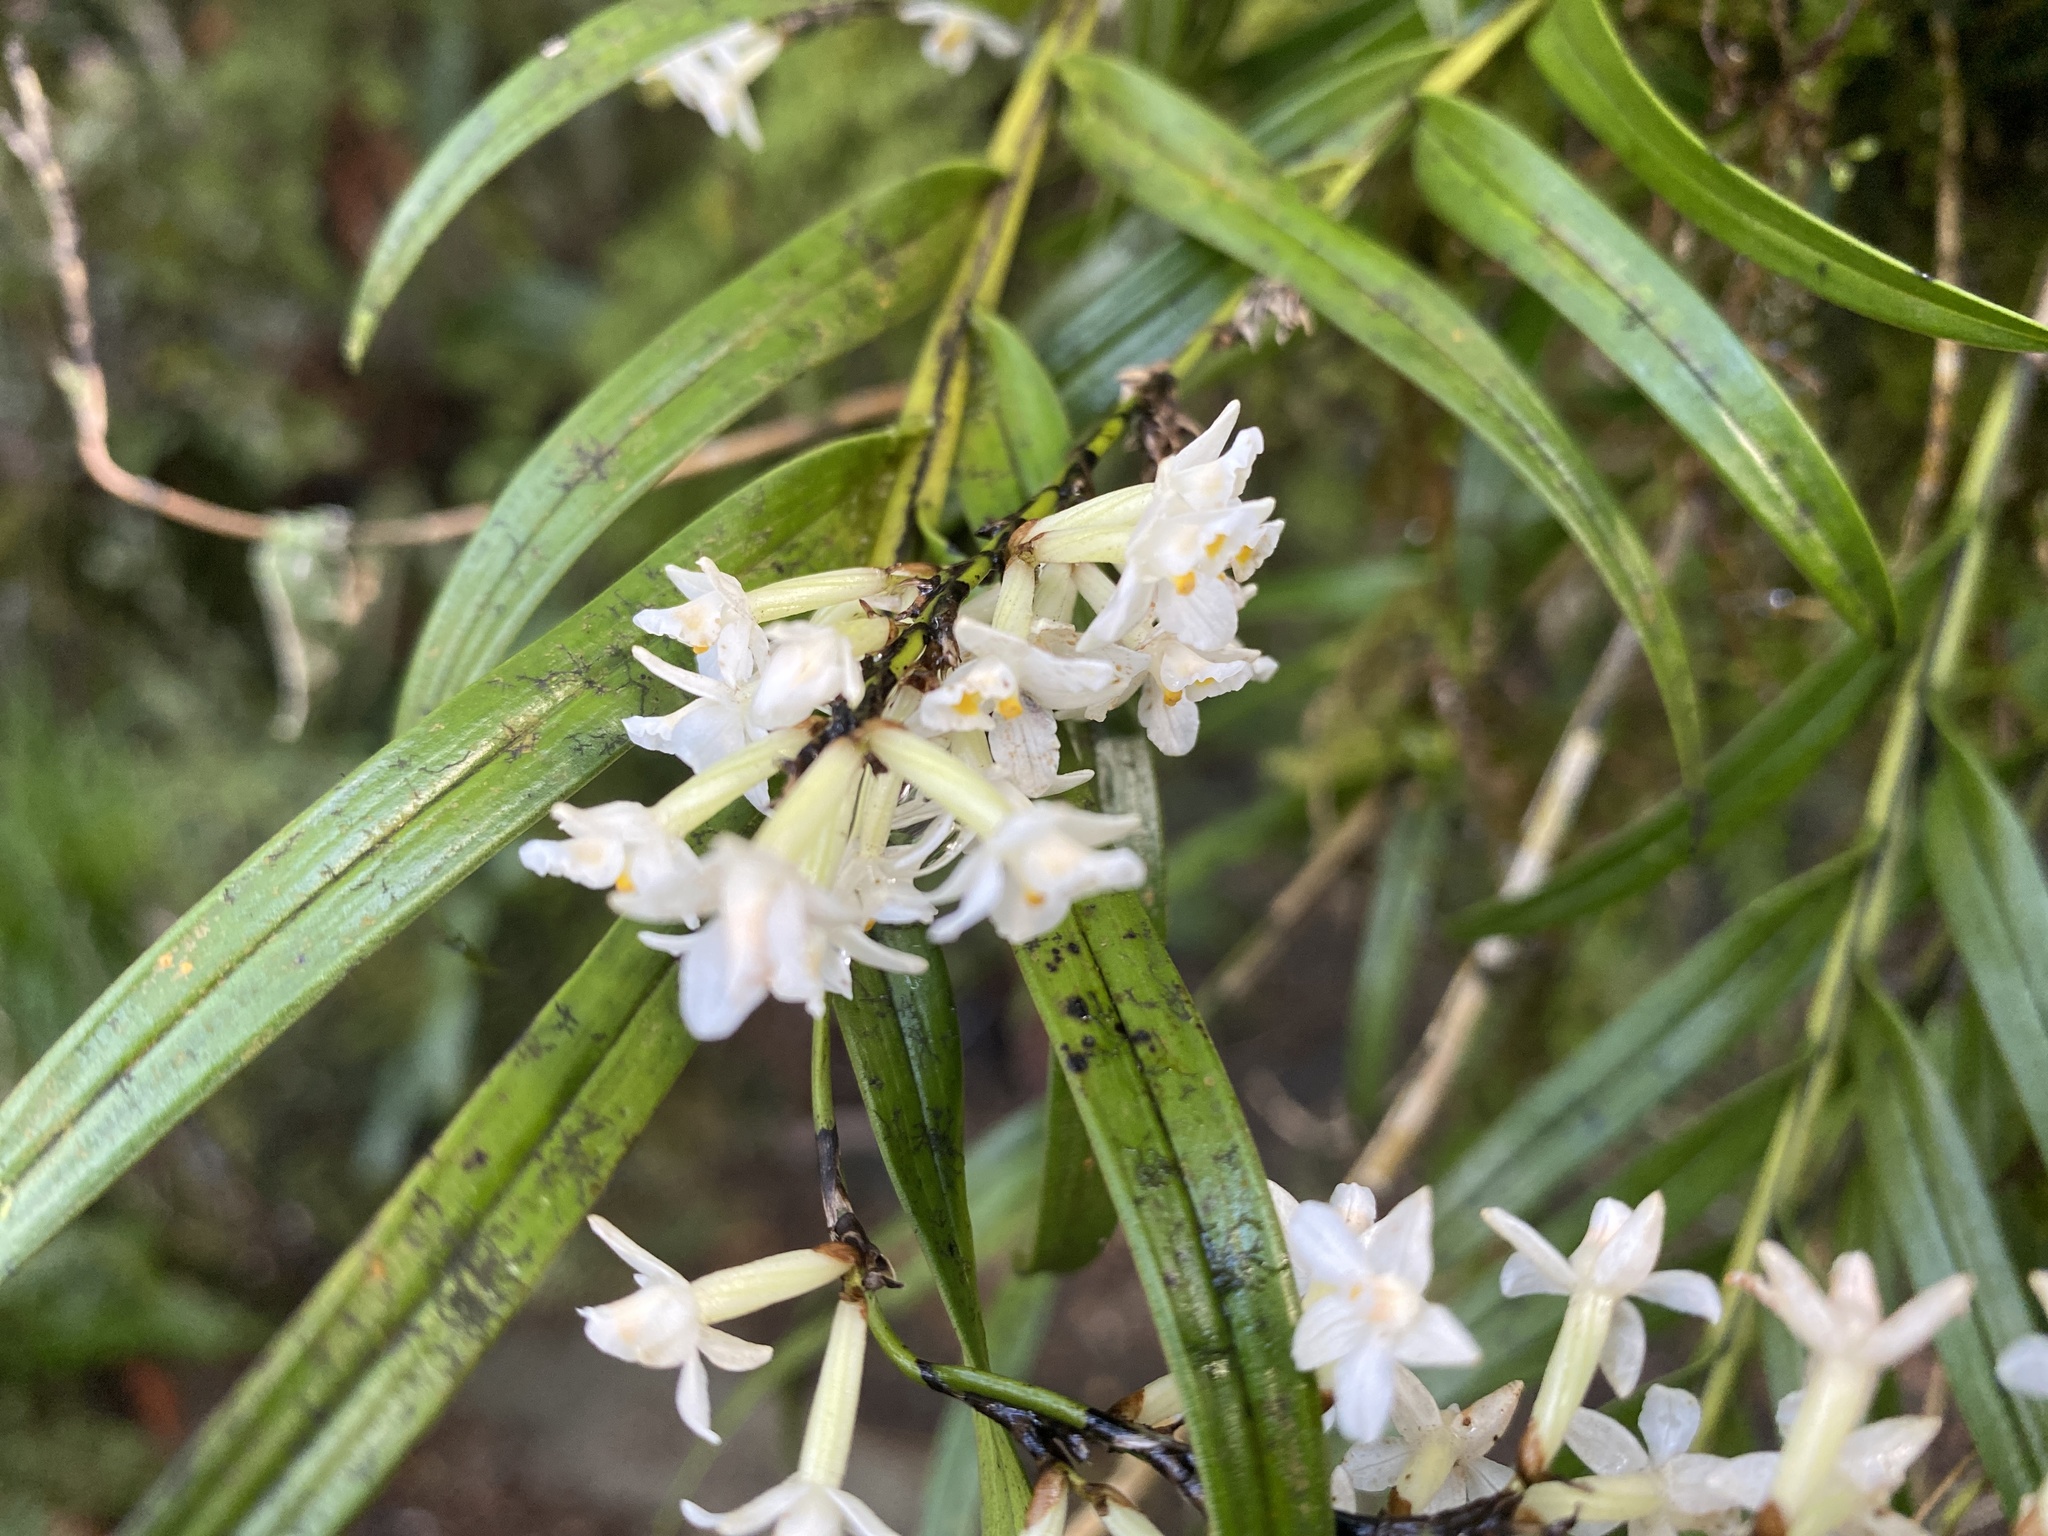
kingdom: Plantae
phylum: Tracheophyta
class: Liliopsida
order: Asparagales
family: Orchidaceae
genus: Earina
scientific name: Earina autumnalis
